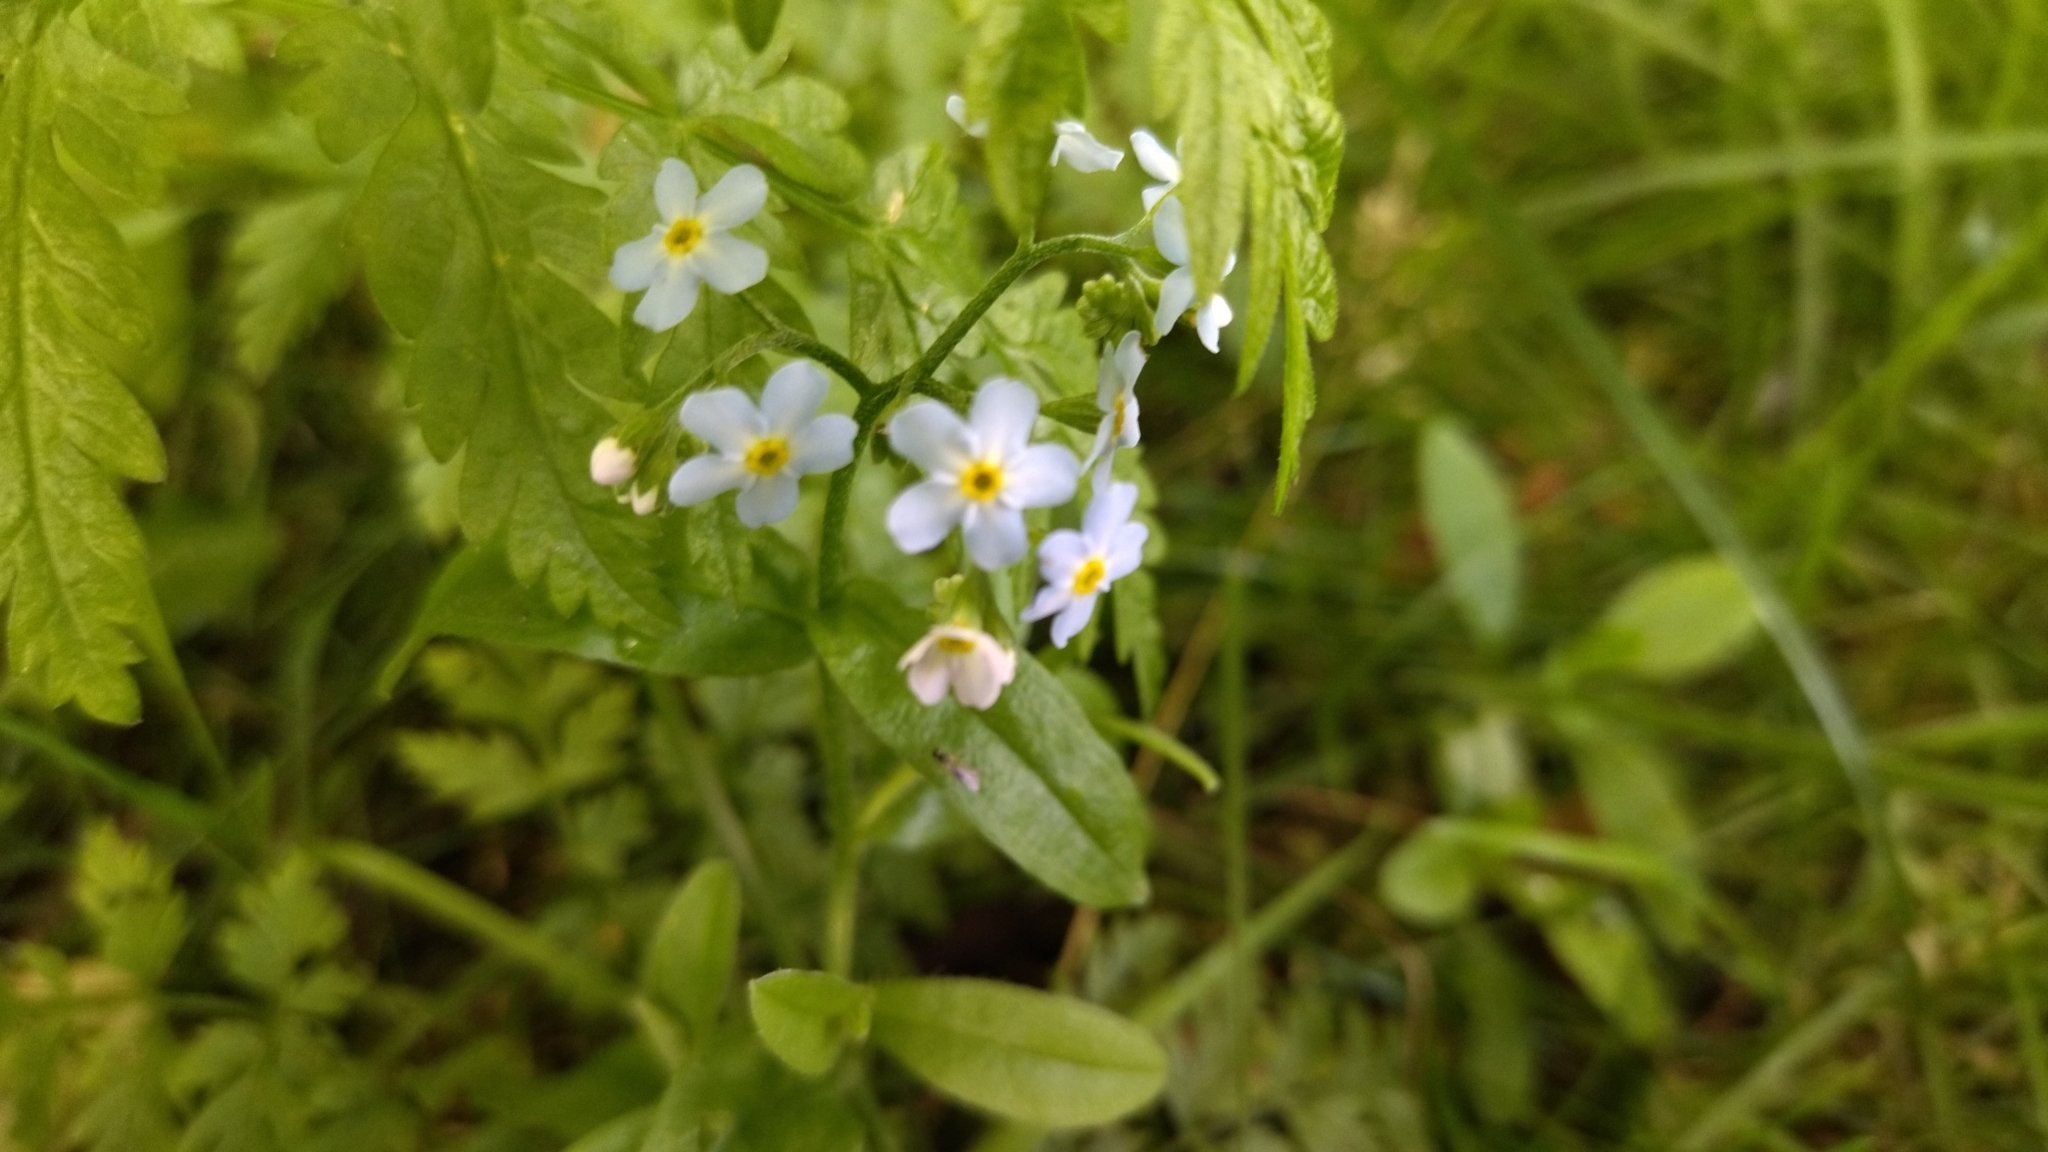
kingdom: Plantae
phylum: Tracheophyta
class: Magnoliopsida
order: Boraginales
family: Boraginaceae
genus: Myosotis
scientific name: Myosotis scorpioides
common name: Water forget-me-not
